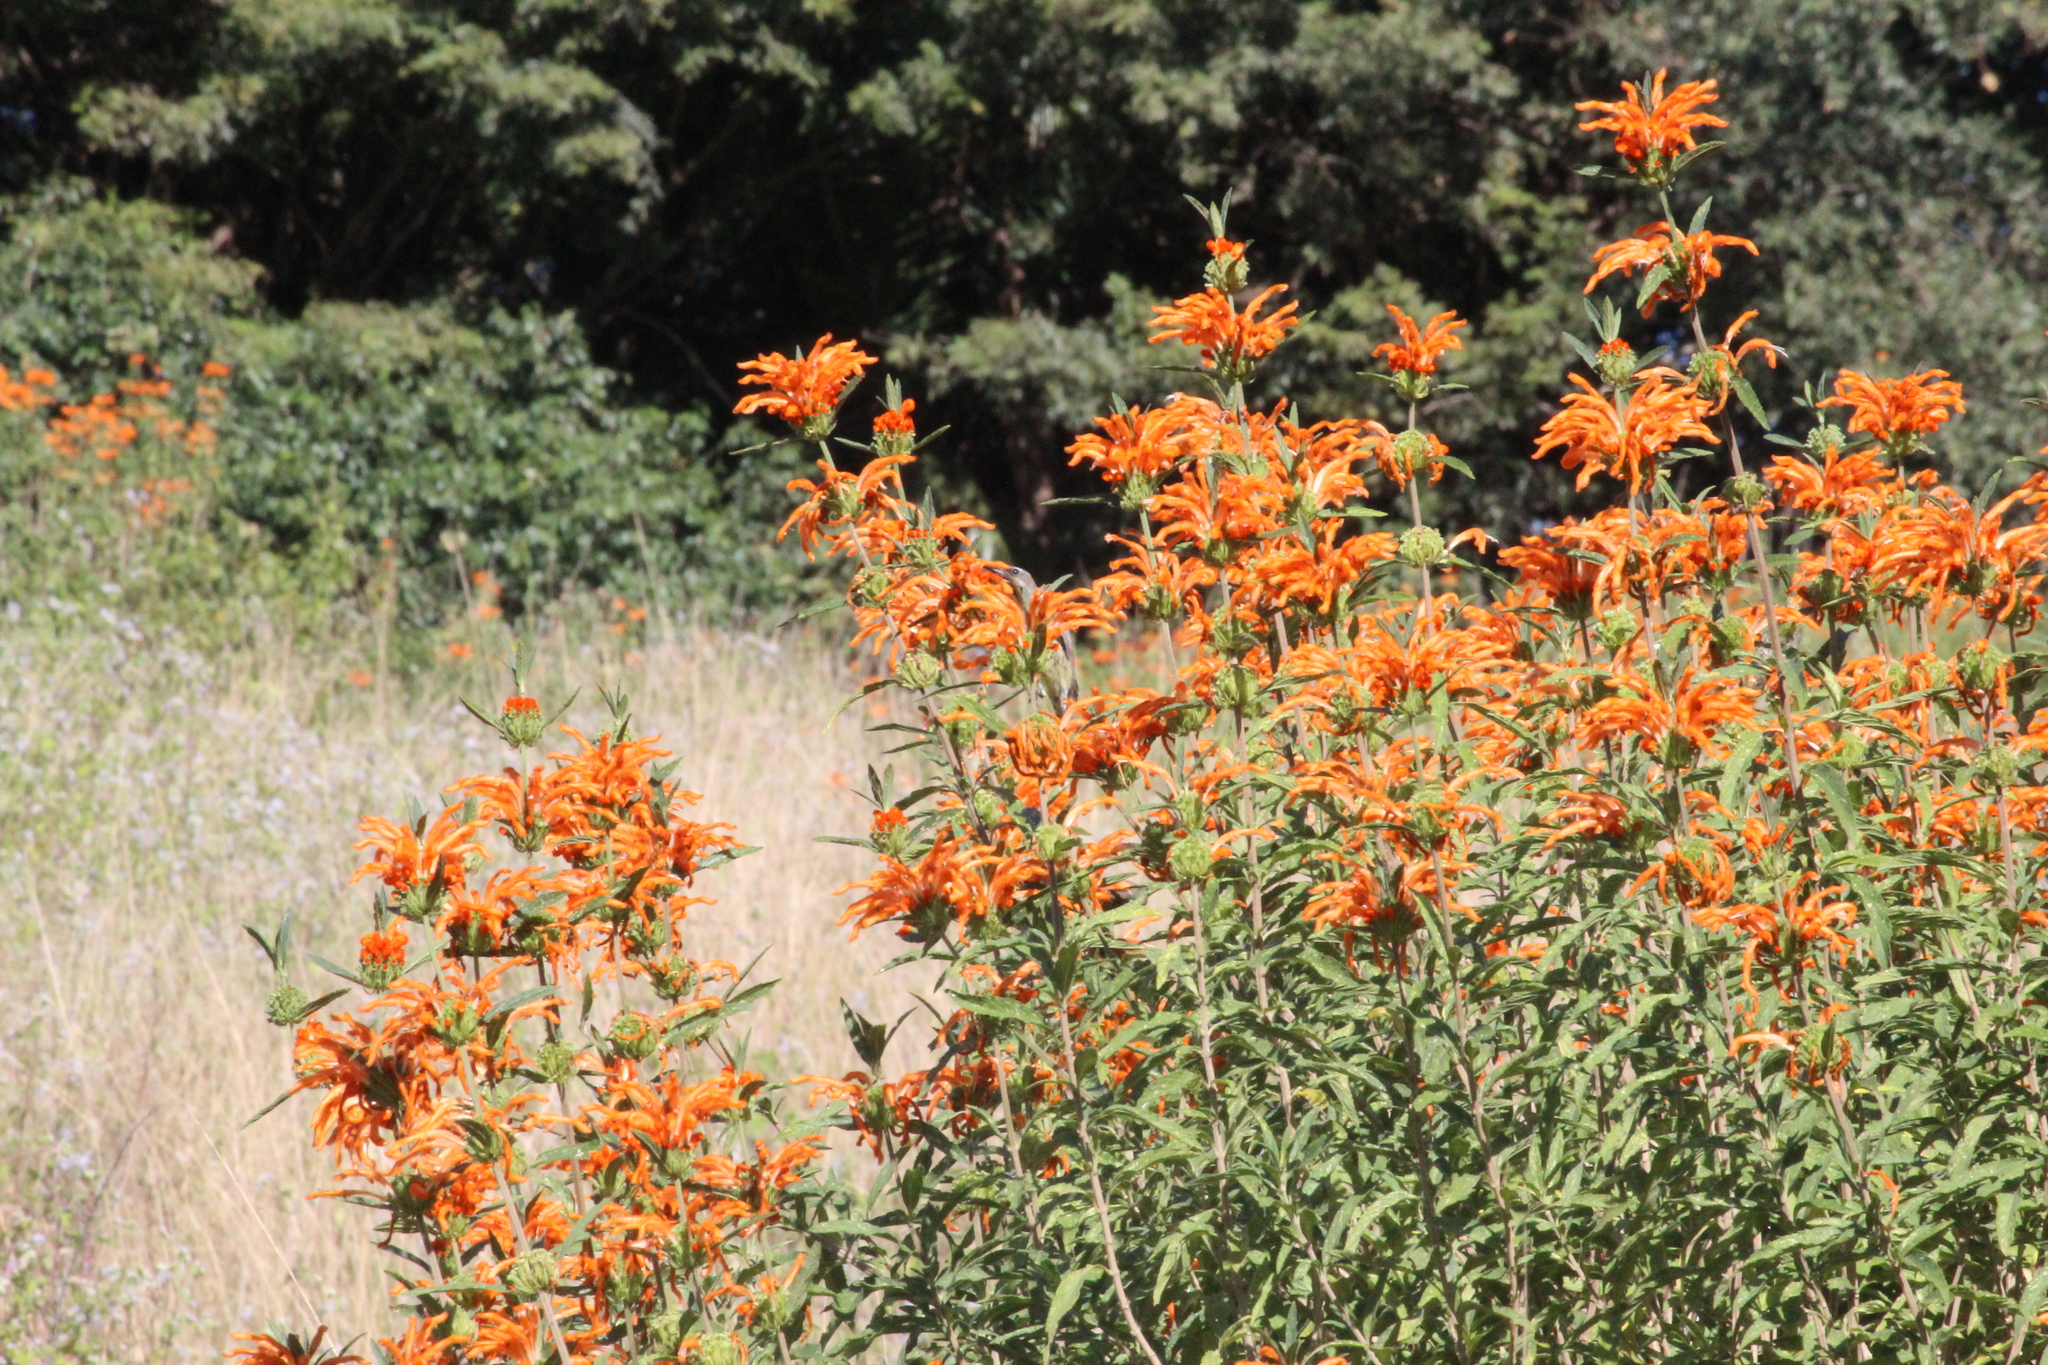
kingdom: Animalia
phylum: Chordata
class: Aves
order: Passeriformes
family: Nectariniidae
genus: Chalcomitra
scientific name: Chalcomitra amethystina
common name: Amethyst sunbird
